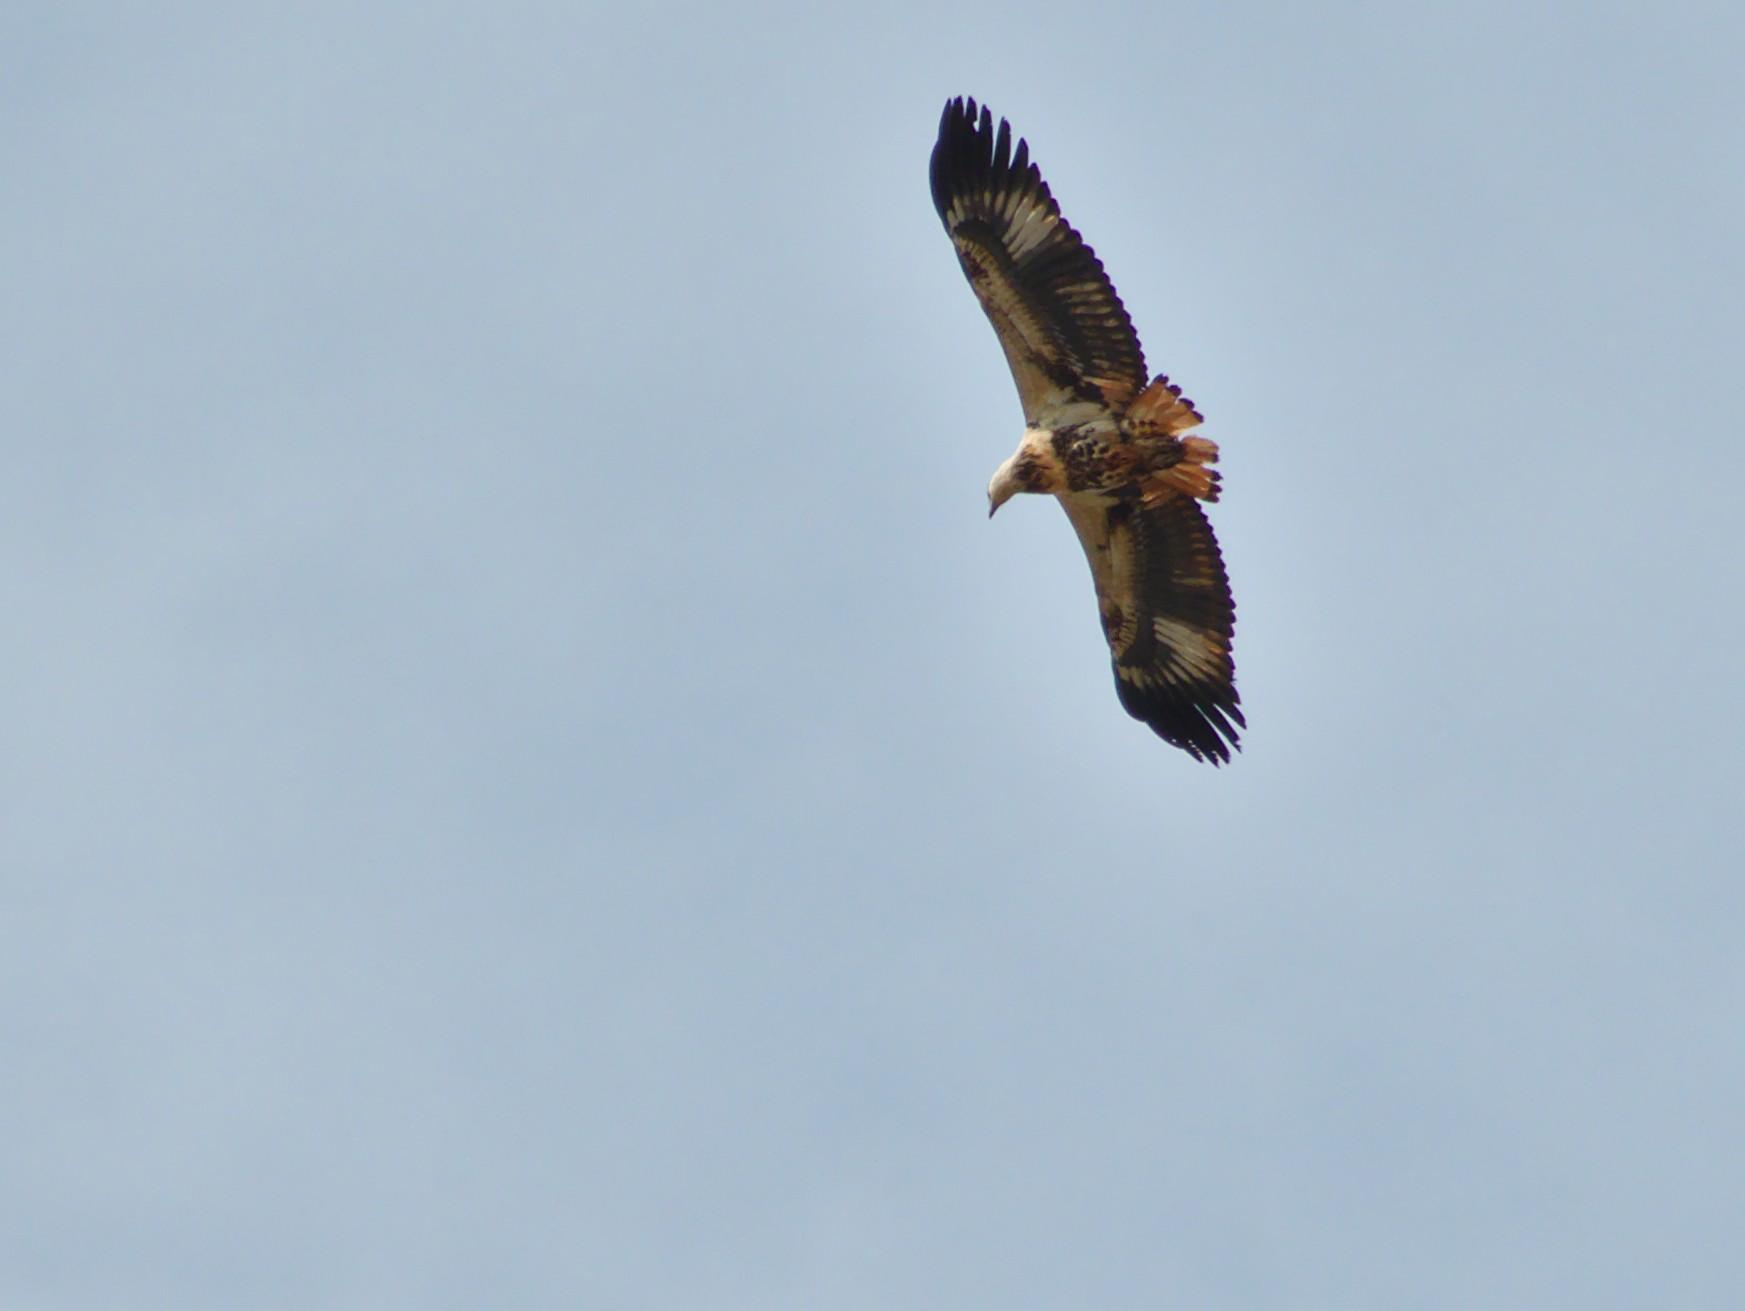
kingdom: Animalia
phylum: Chordata
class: Aves
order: Accipitriformes
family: Accipitridae
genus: Haliaeetus
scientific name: Haliaeetus vocifer
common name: African fish eagle
